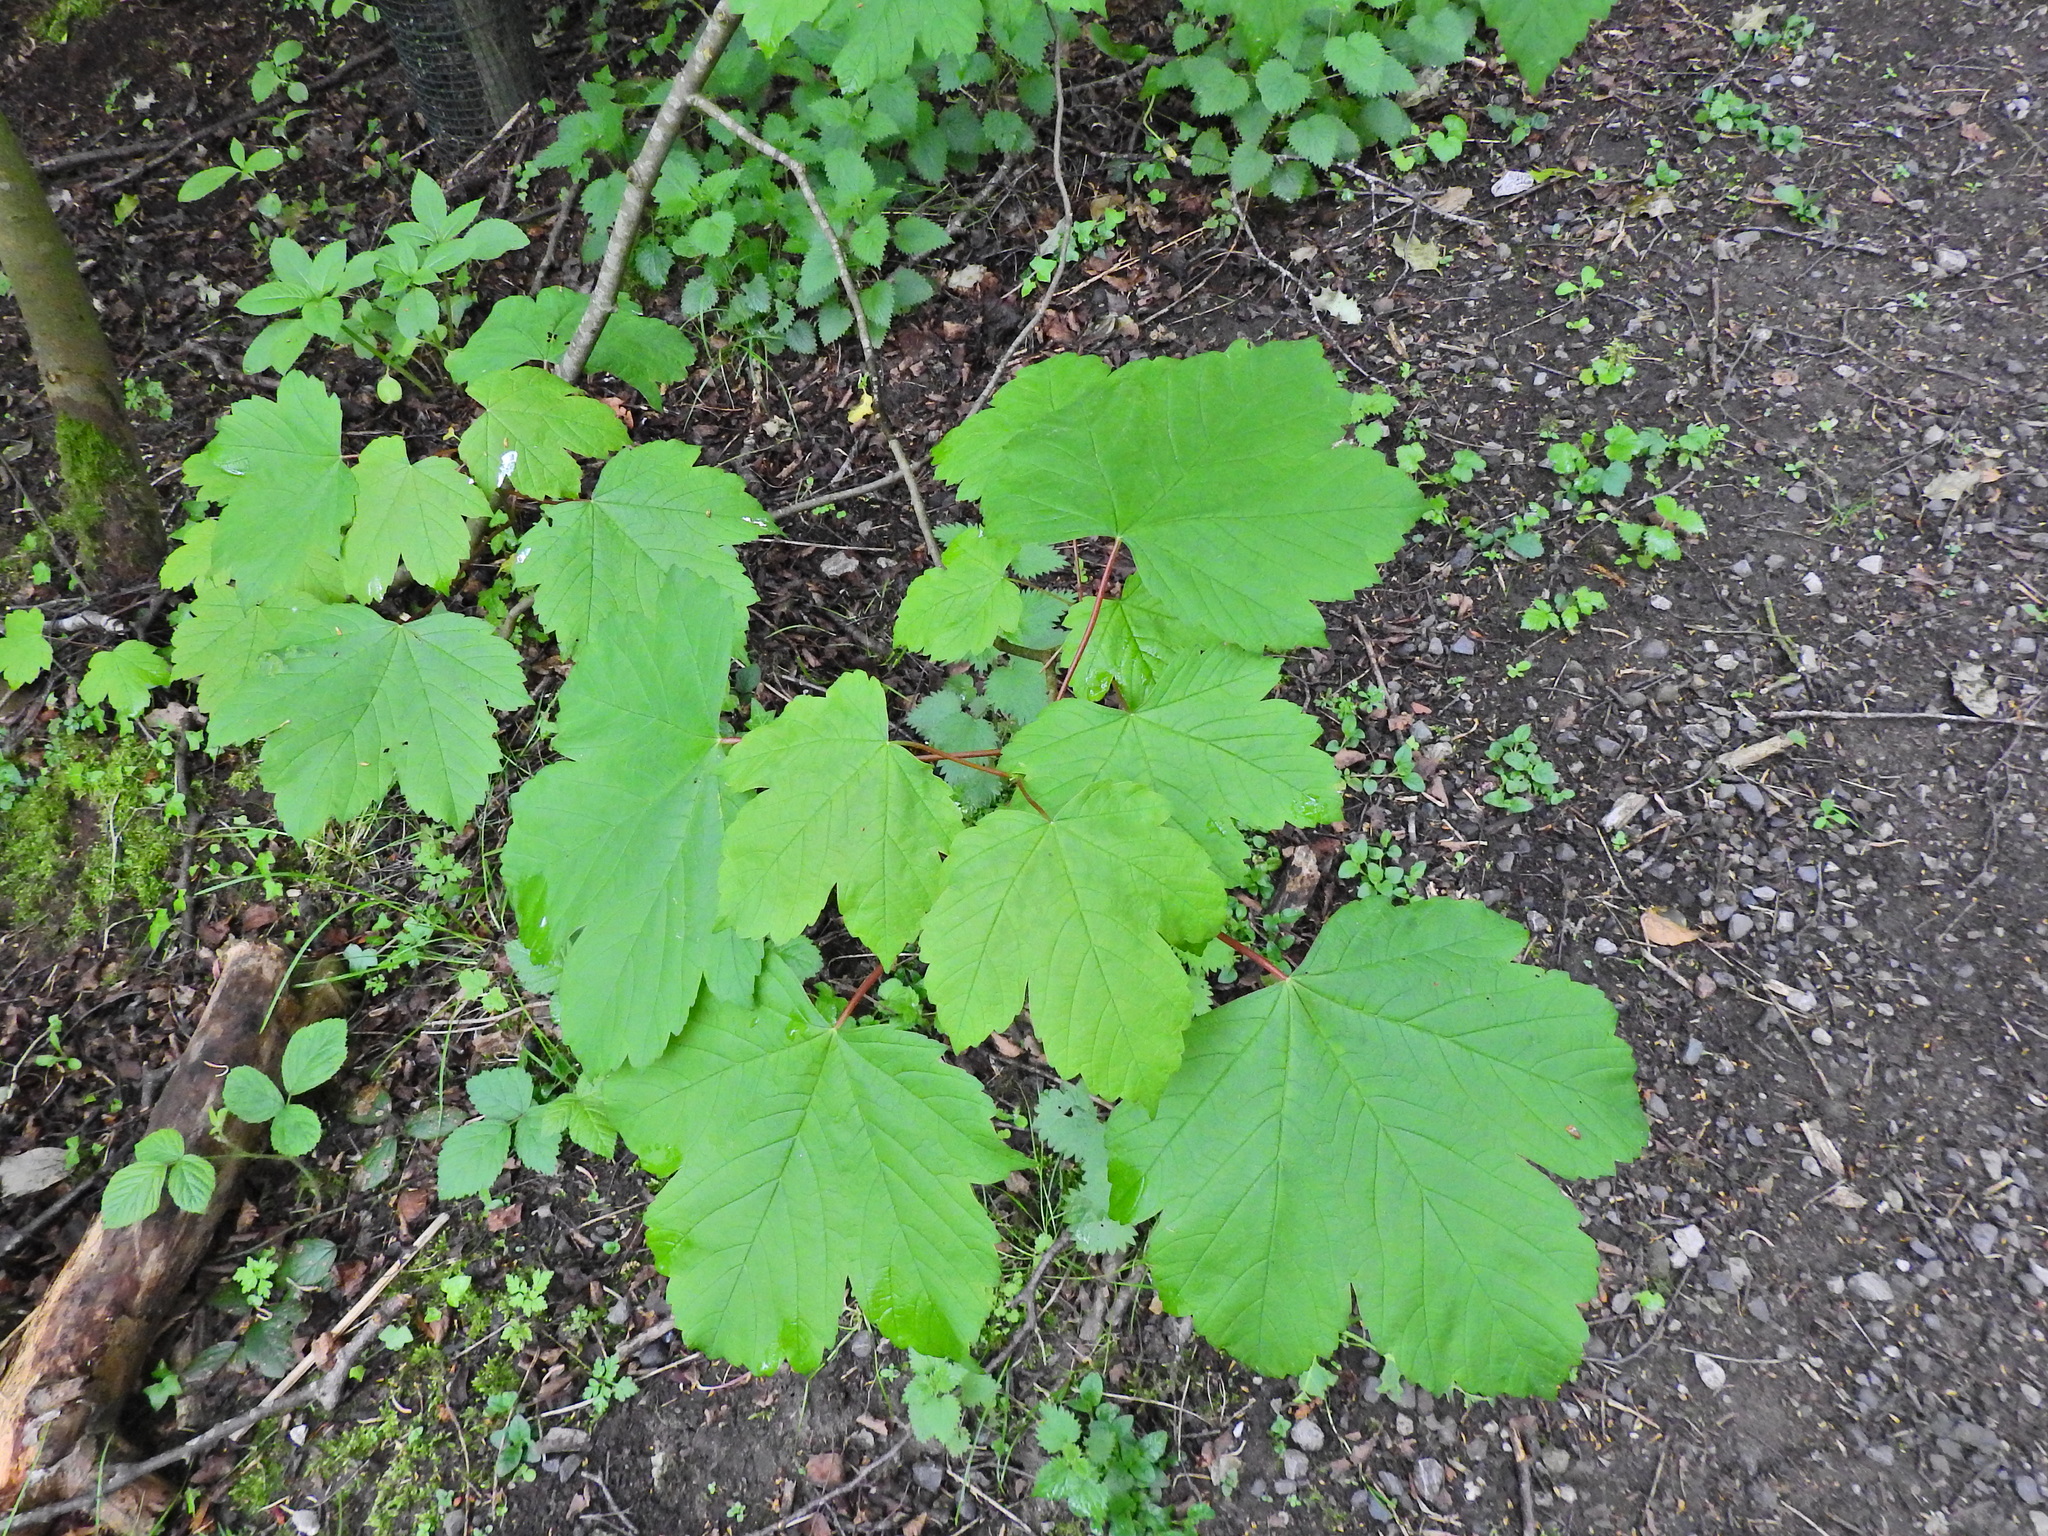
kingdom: Plantae
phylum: Tracheophyta
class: Magnoliopsida
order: Sapindales
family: Sapindaceae
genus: Acer
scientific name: Acer pseudoplatanus
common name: Sycamore
